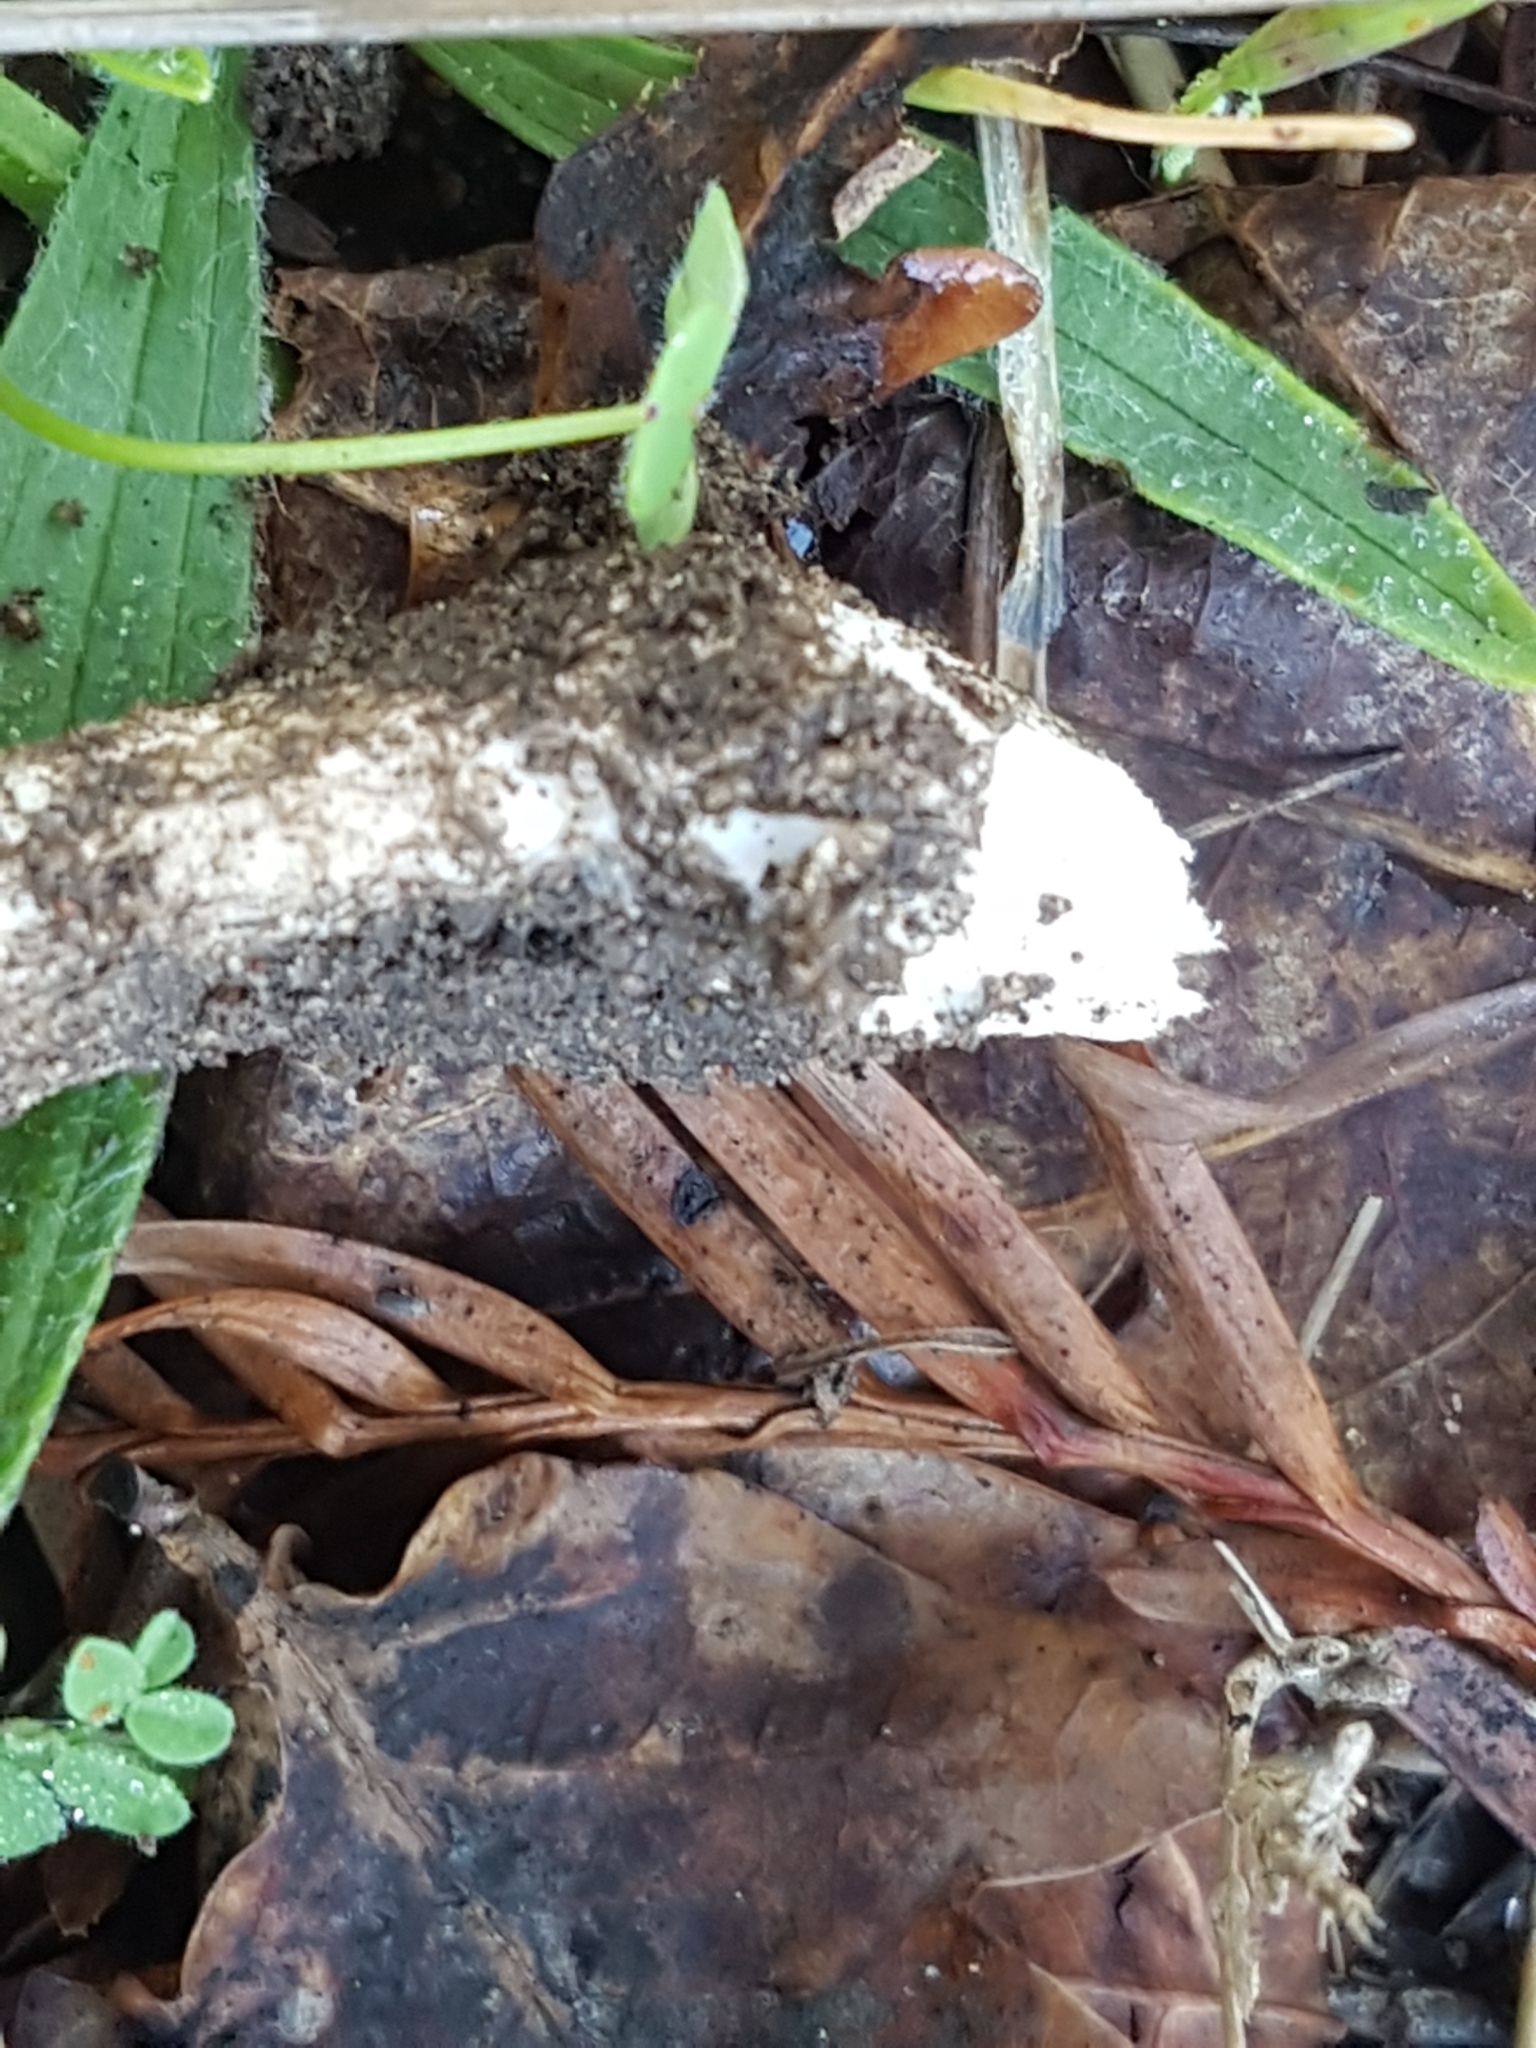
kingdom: Fungi
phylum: Basidiomycota
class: Agaricomycetes
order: Agaricales
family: Amanitaceae
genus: Amanita
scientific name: Amanita phalloides
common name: Death cap
